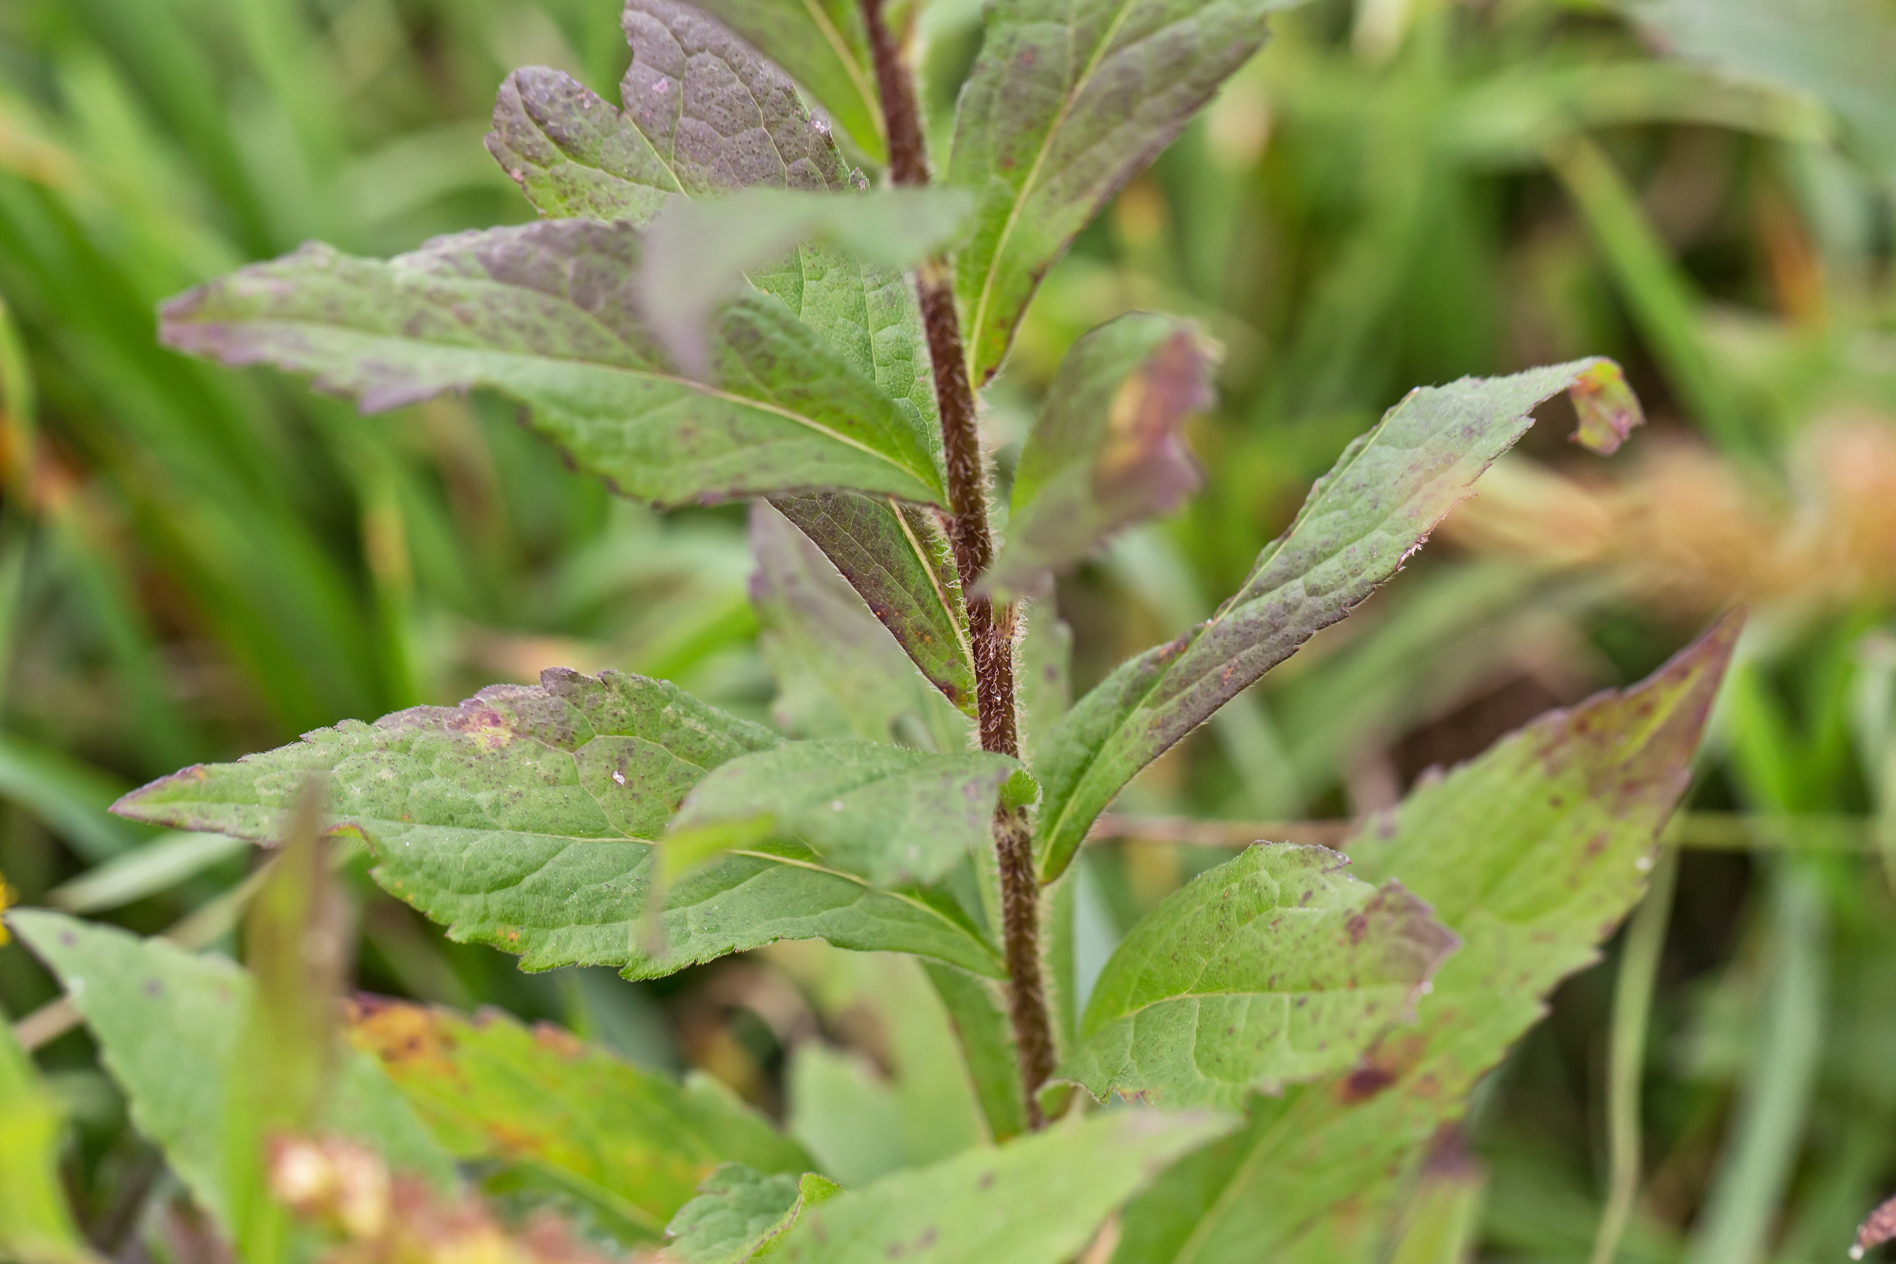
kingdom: Plantae
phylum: Tracheophyta
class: Magnoliopsida
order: Asterales
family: Asteraceae
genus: Solidago
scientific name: Solidago rugosa
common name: Rough-stemmed goldenrod
